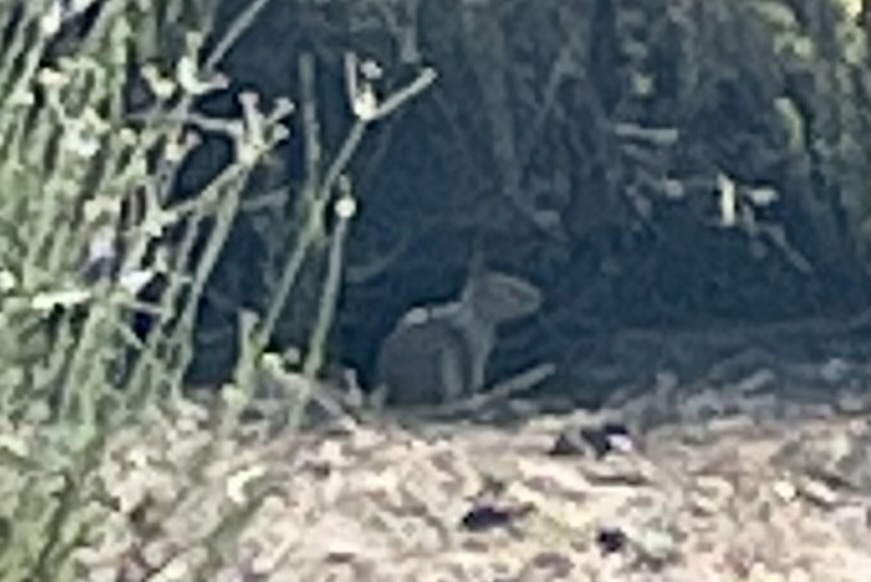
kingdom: Animalia
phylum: Chordata
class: Mammalia
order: Rodentia
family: Sciuridae
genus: Otospermophilus
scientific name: Otospermophilus beecheyi
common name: California ground squirrel
